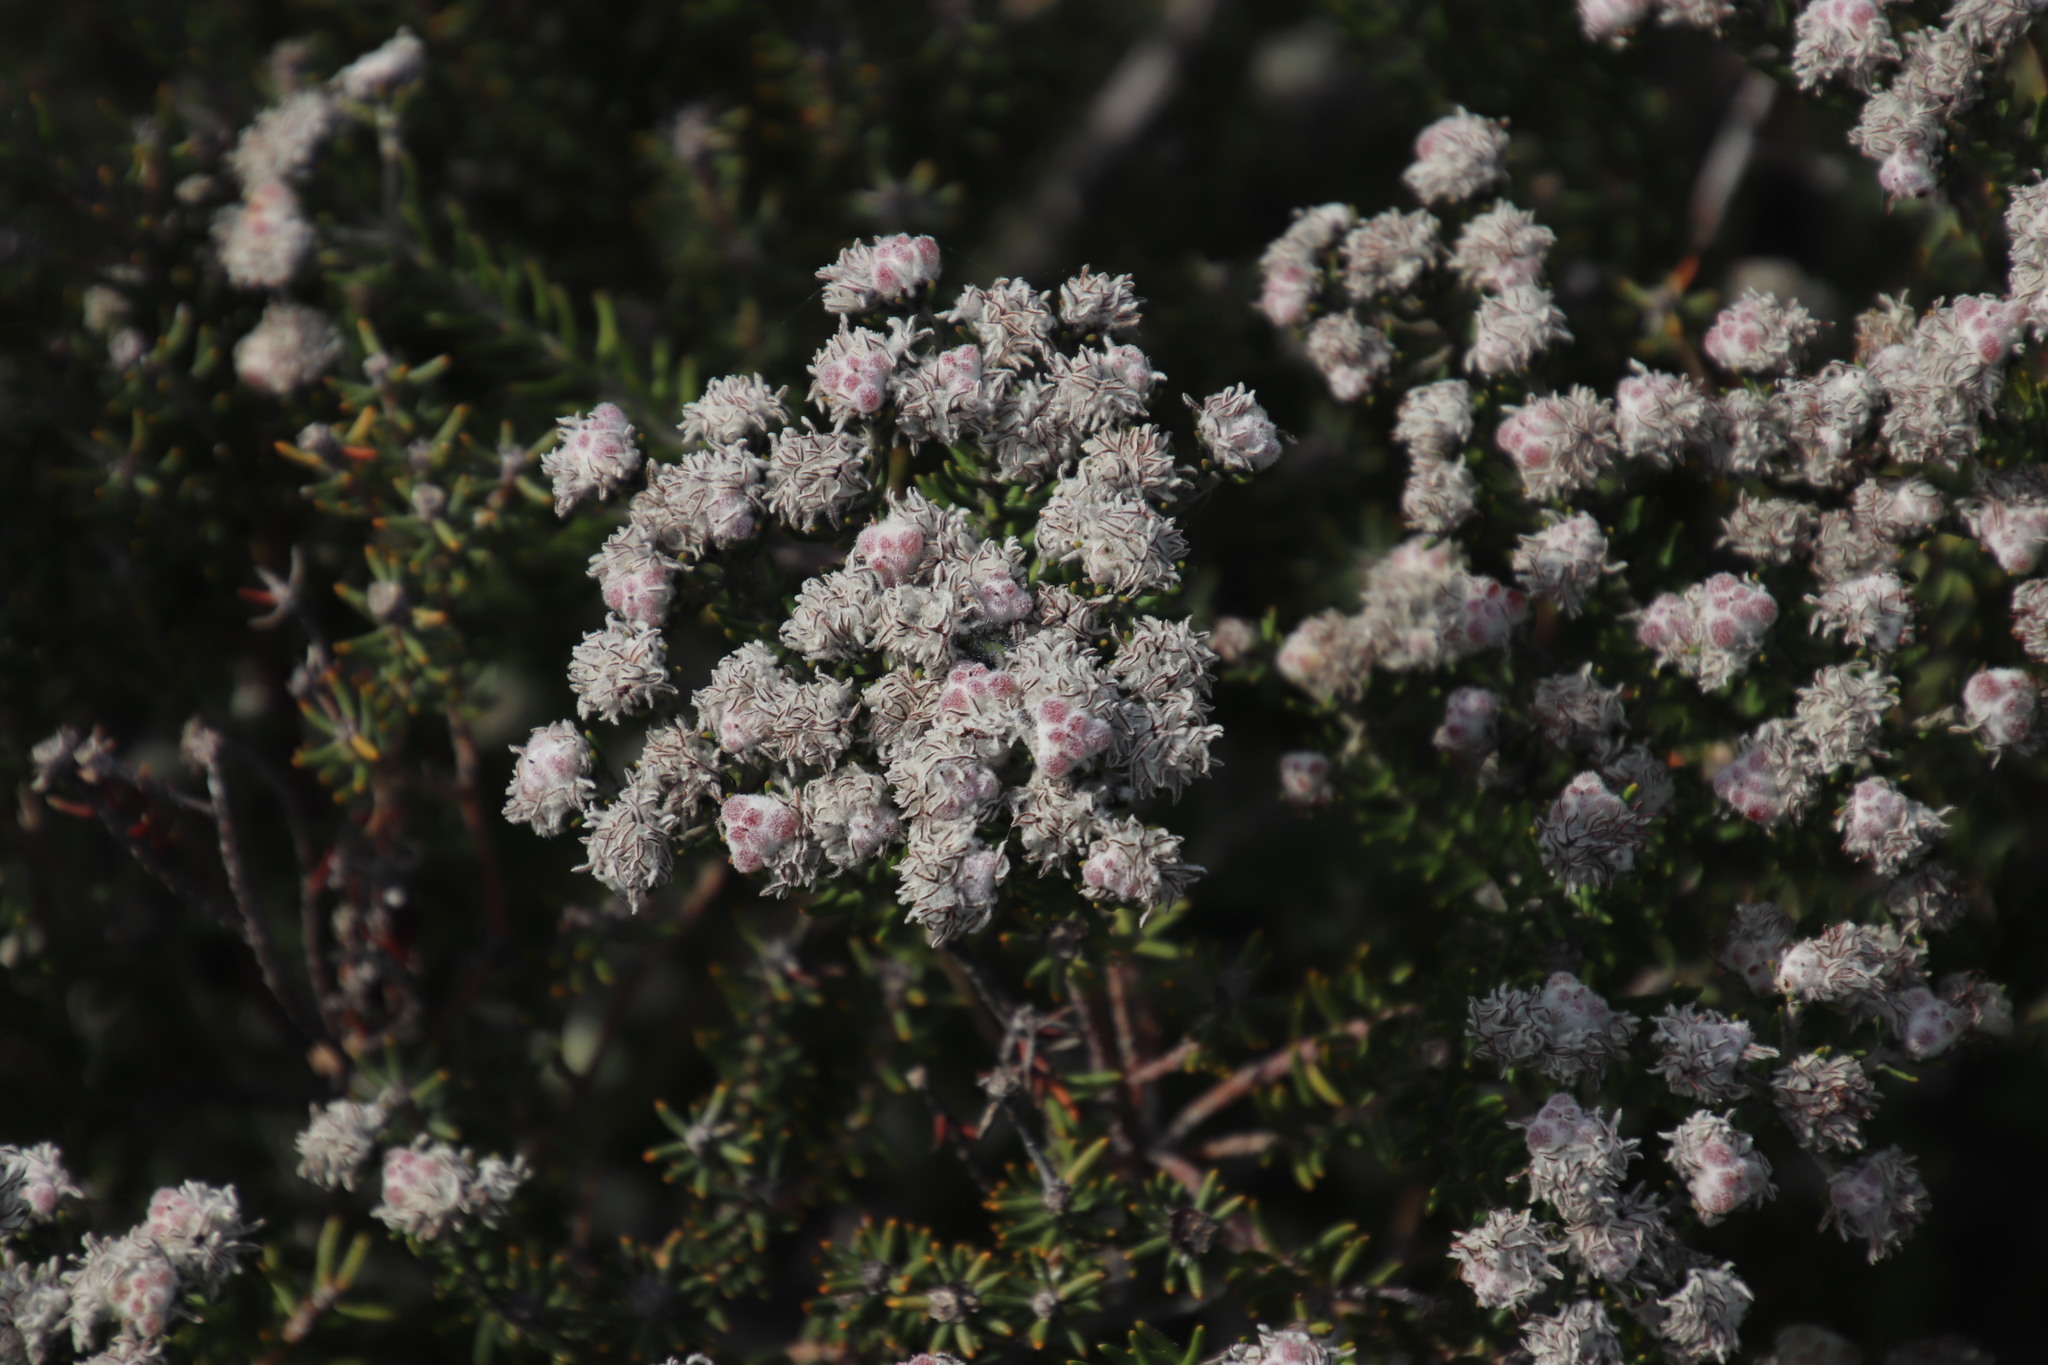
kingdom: Plantae
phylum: Tracheophyta
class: Magnoliopsida
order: Rosales
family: Rhamnaceae
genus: Trichocephalus
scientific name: Trichocephalus stipularis
